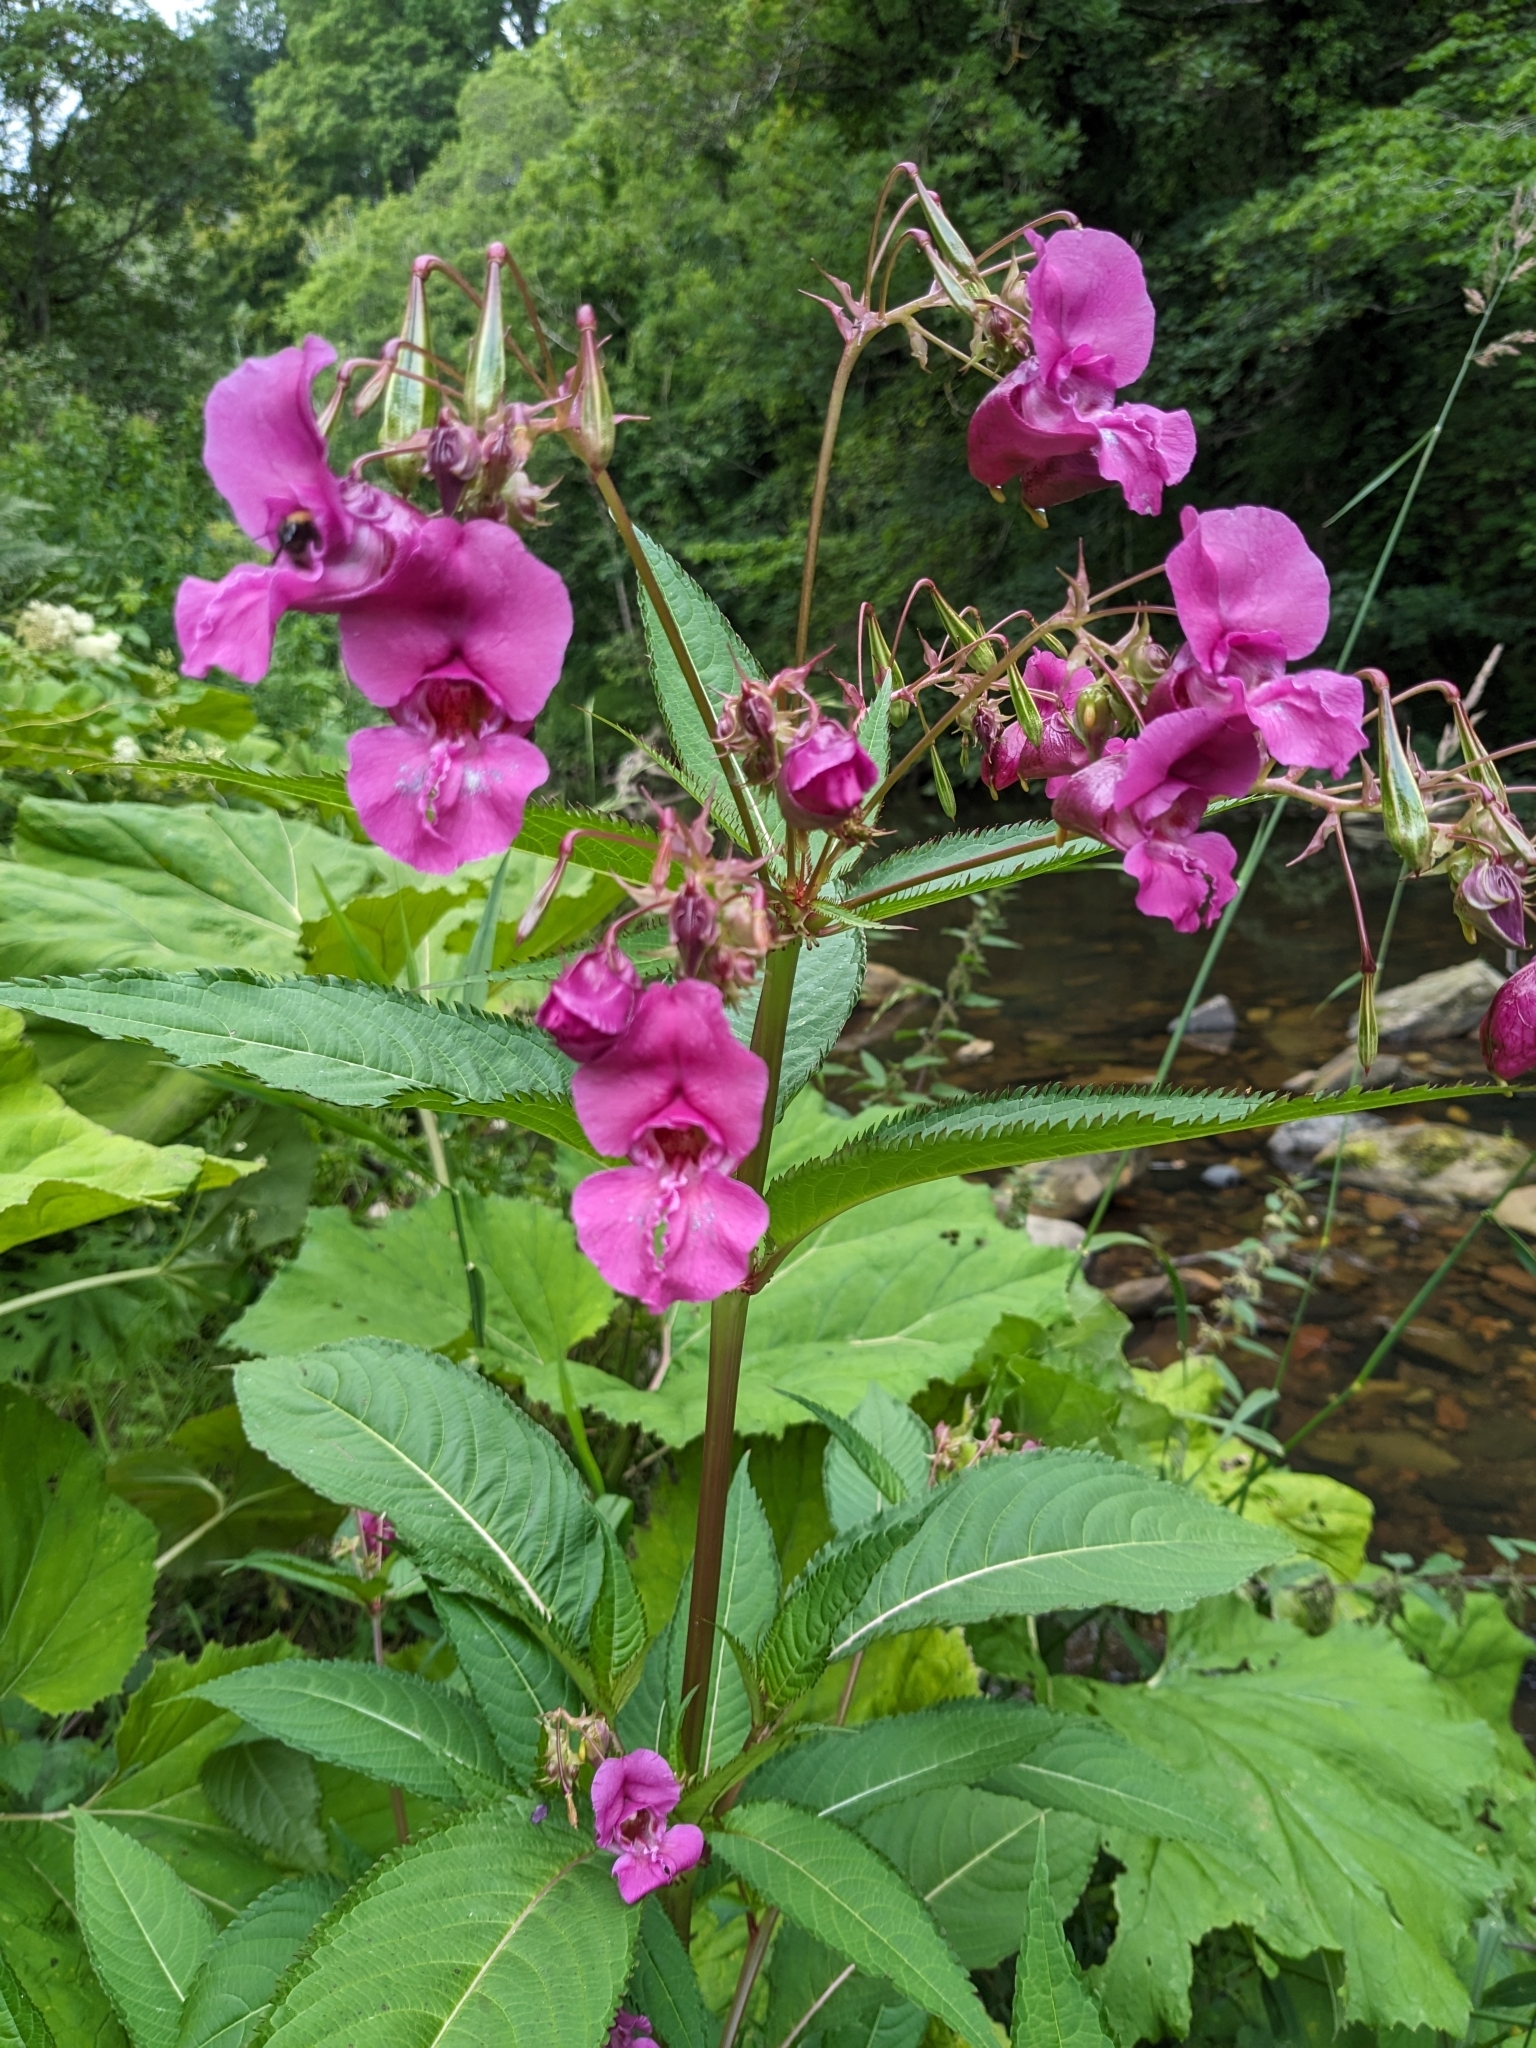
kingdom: Plantae
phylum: Tracheophyta
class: Magnoliopsida
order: Ericales
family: Balsaminaceae
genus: Impatiens
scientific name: Impatiens glandulifera
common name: Himalayan balsam
